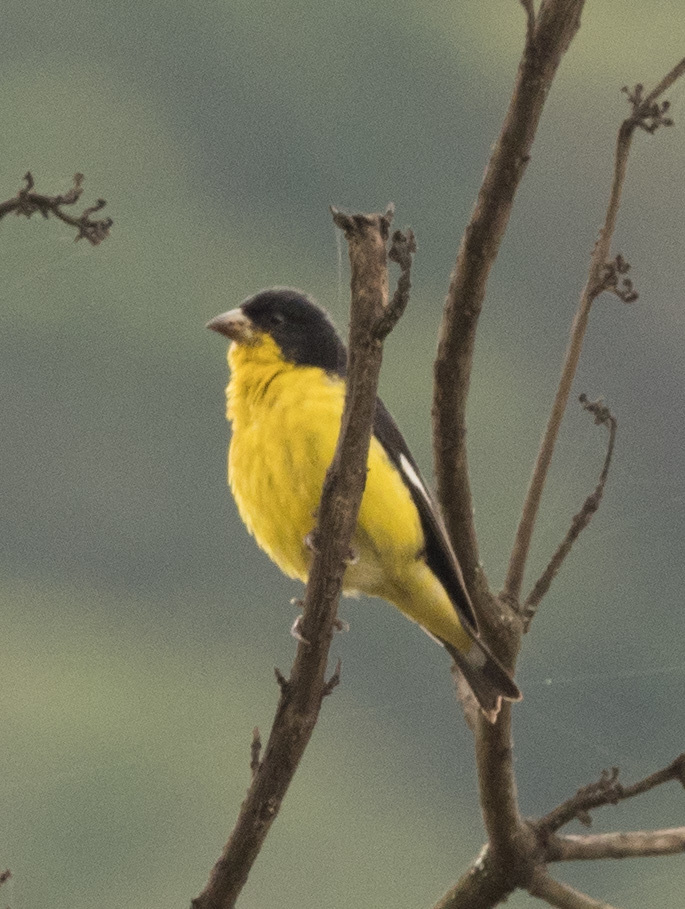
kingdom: Animalia
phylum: Chordata
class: Aves
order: Passeriformes
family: Fringillidae
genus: Spinus
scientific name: Spinus psaltria
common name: Lesser goldfinch
